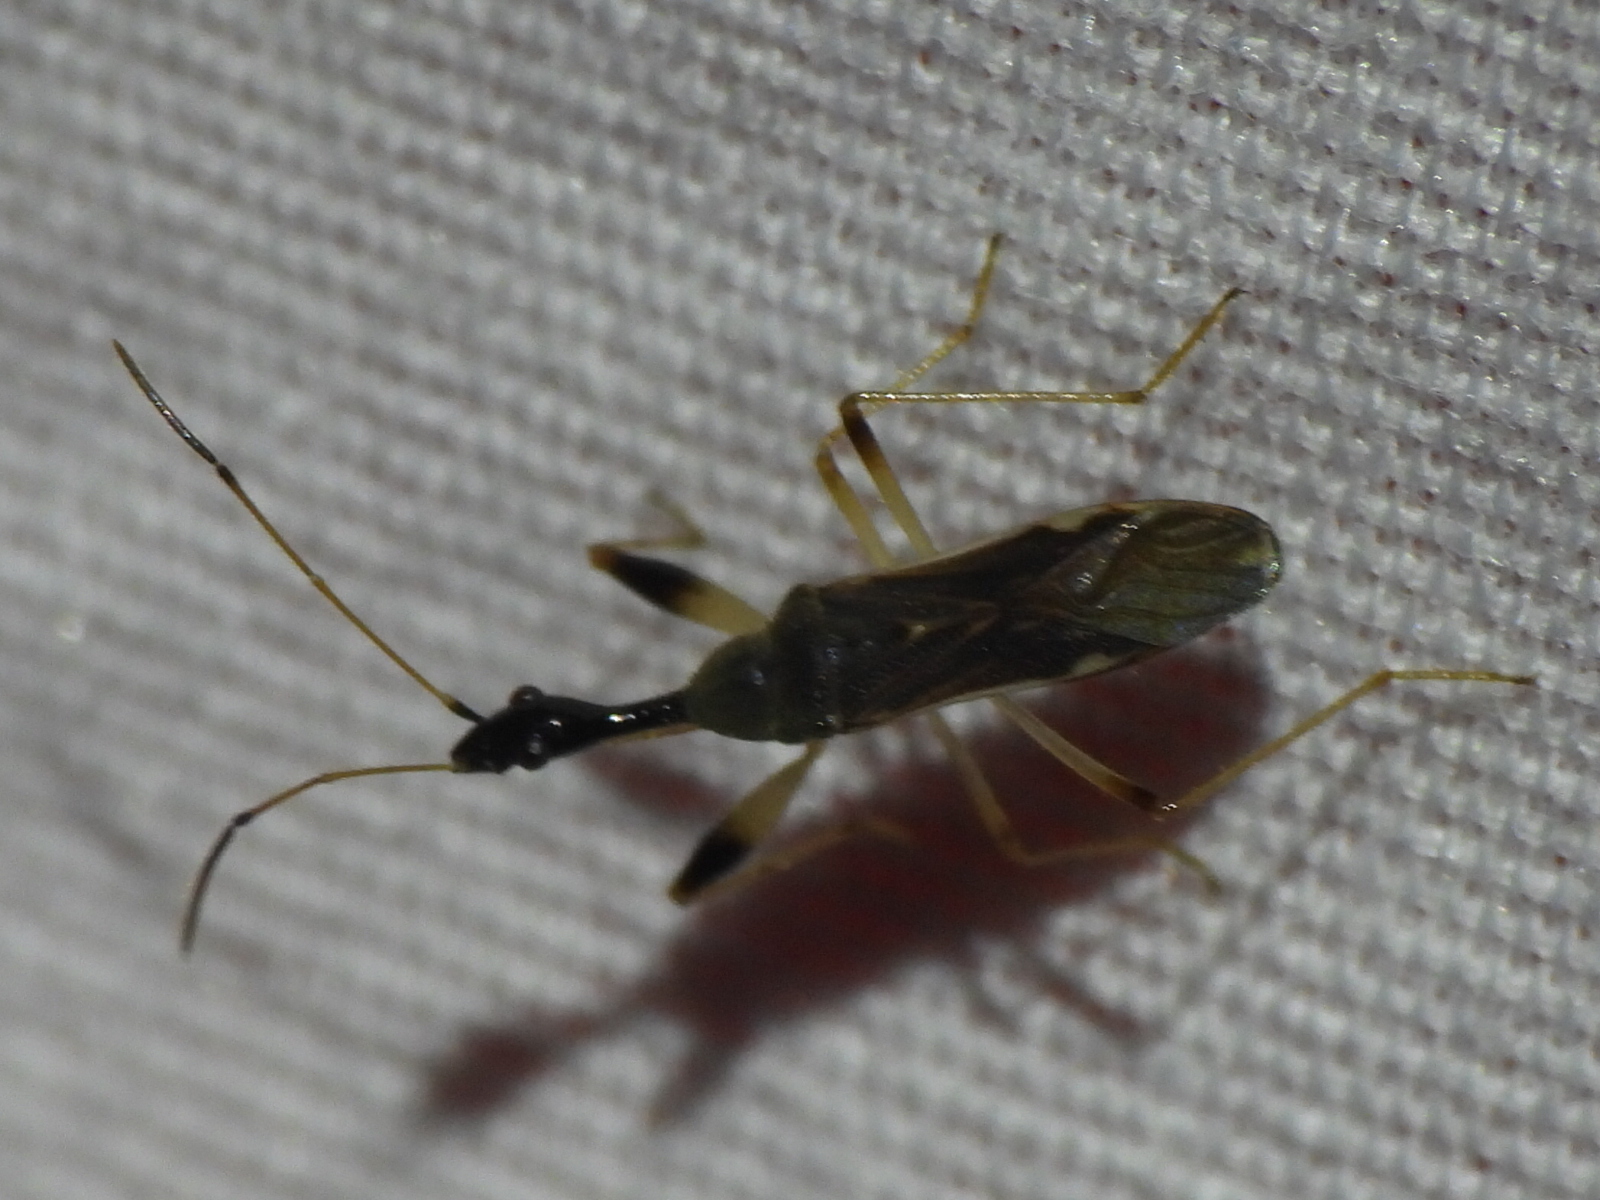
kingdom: Animalia
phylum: Arthropoda
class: Insecta
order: Hemiptera
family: Rhyparochromidae
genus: Myodocha
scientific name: Myodocha serripes
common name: Long-necked seed bug
